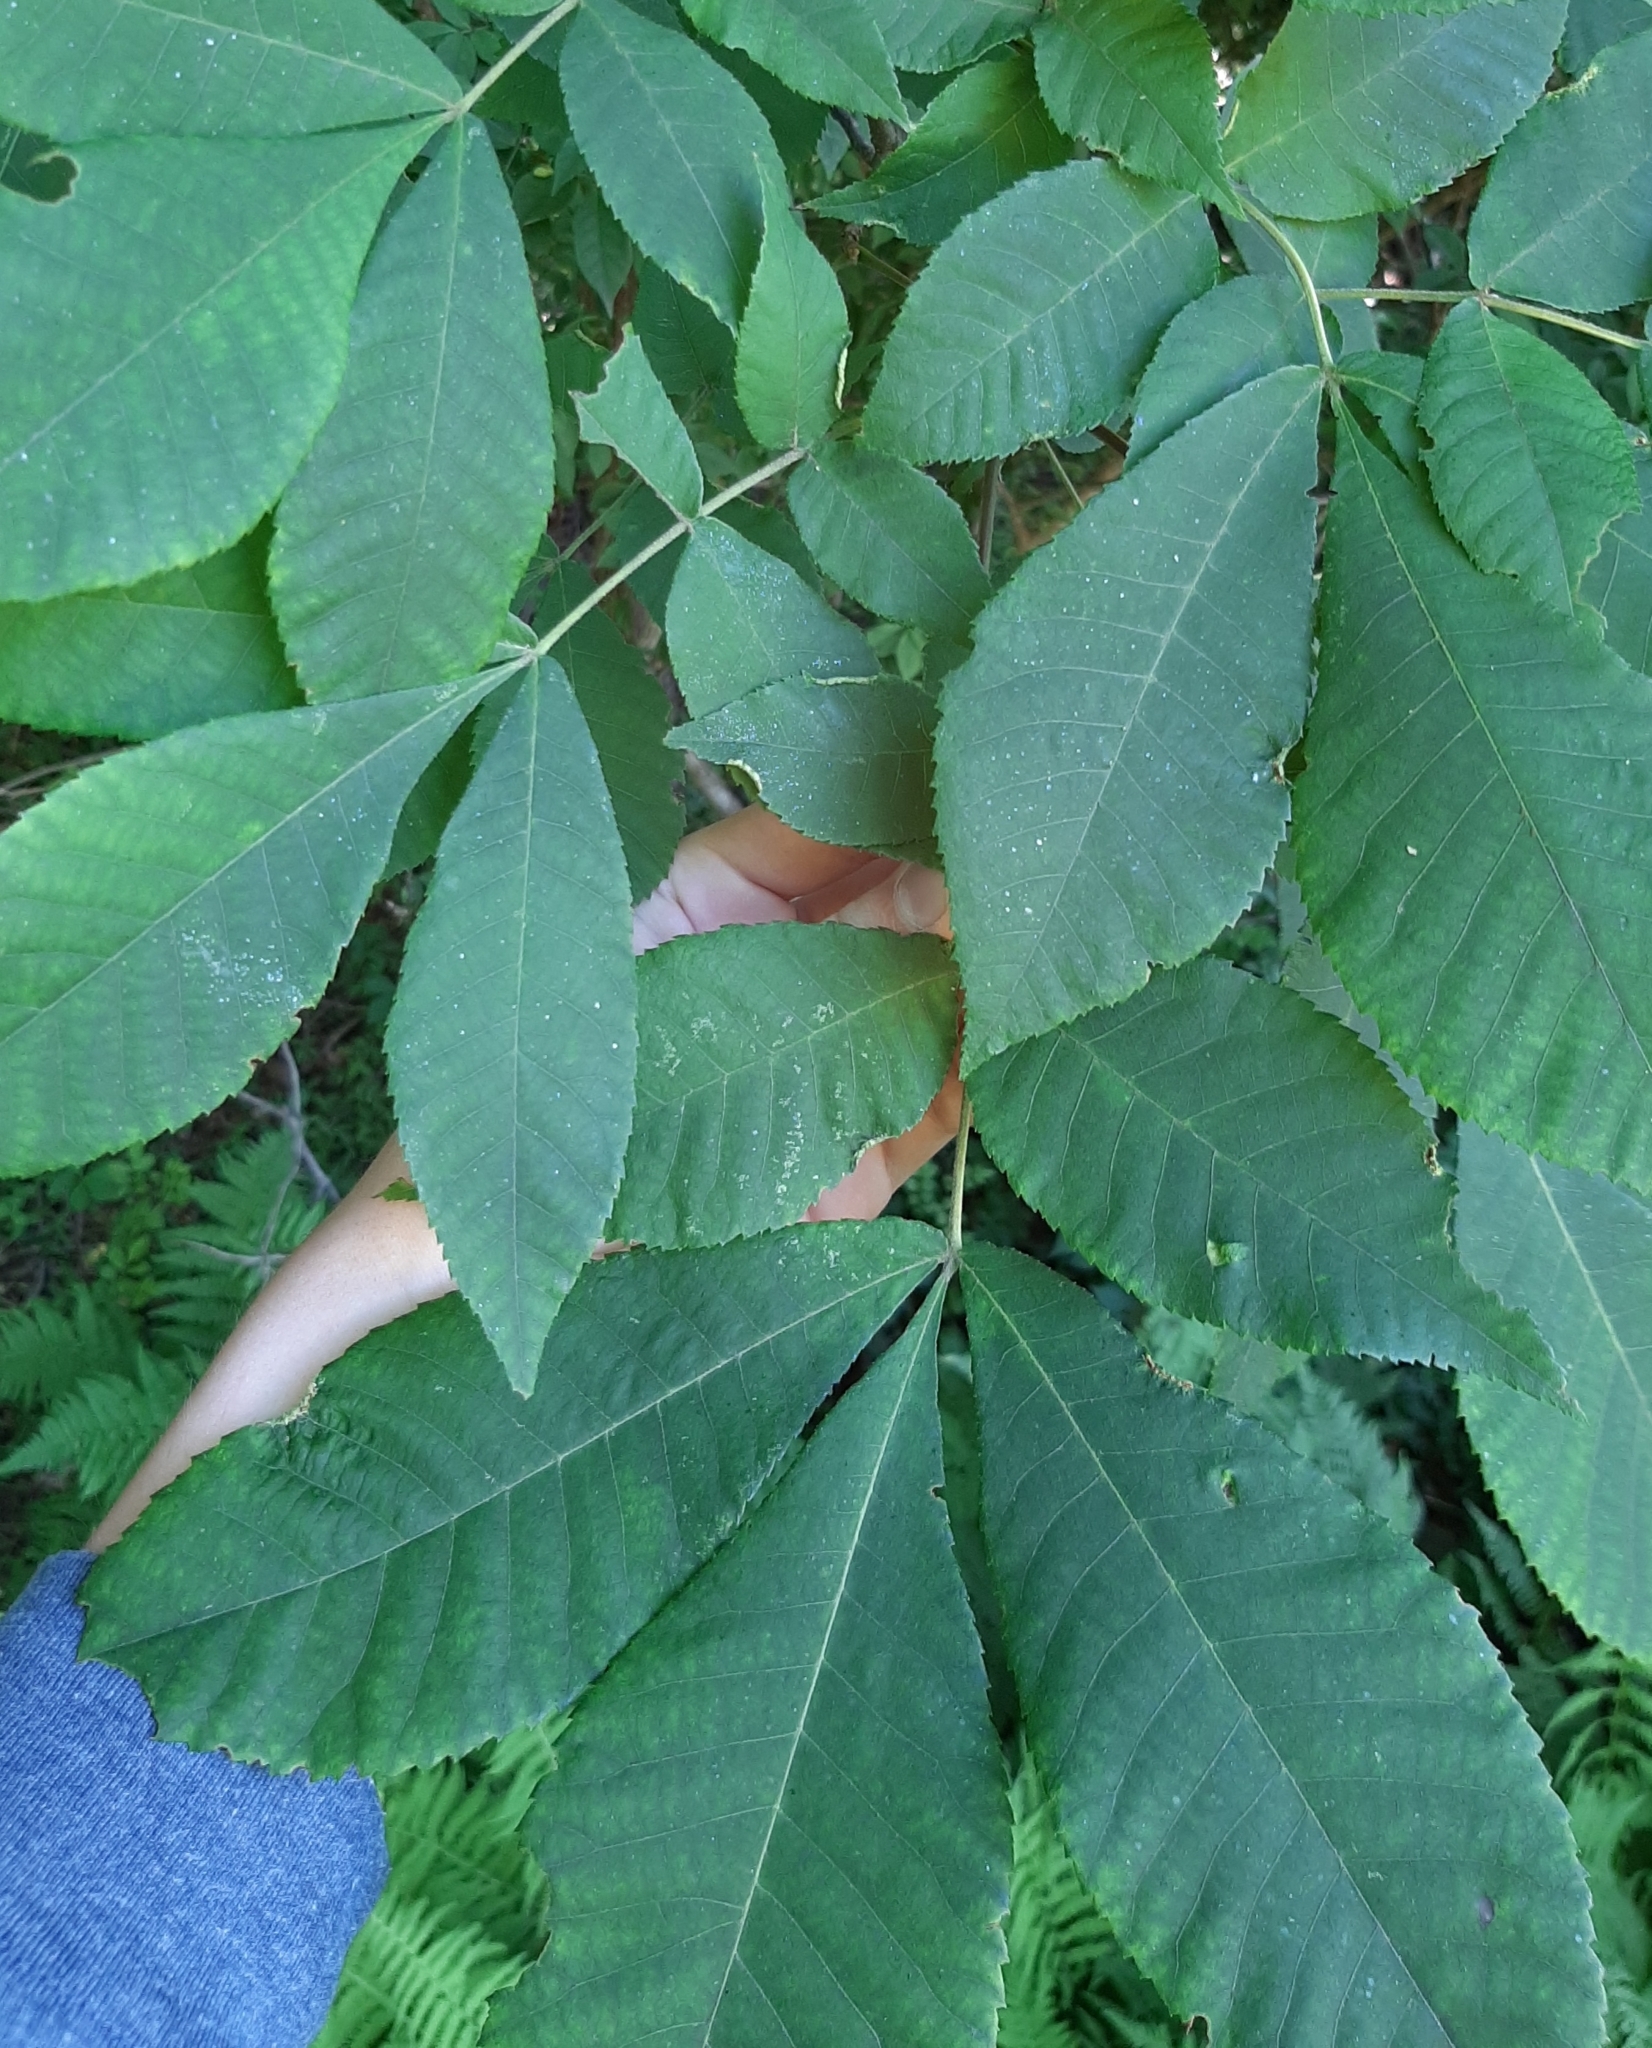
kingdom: Animalia
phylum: Arthropoda
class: Arachnida
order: Trombidiformes
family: Eriophyidae
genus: Aceria
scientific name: Aceria carlinae
